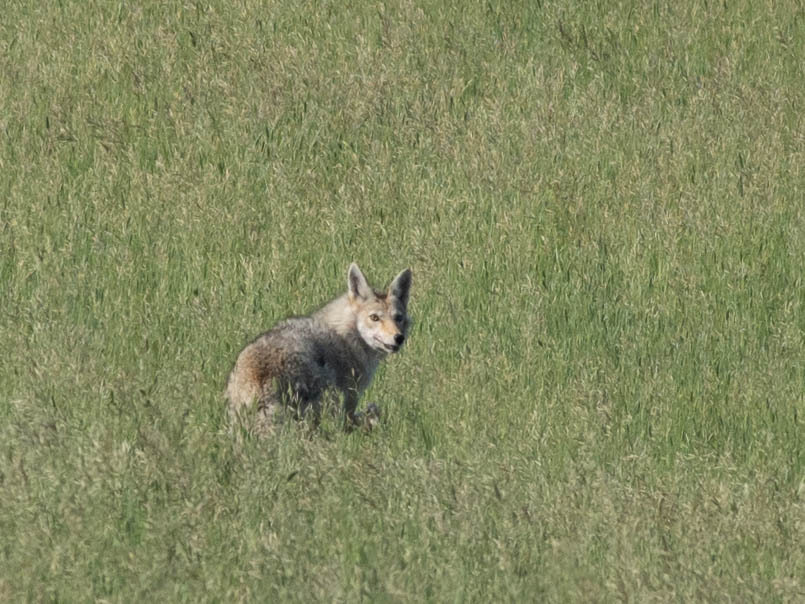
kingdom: Animalia
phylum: Chordata
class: Mammalia
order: Carnivora
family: Canidae
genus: Canis
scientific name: Canis latrans
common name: Coyote
